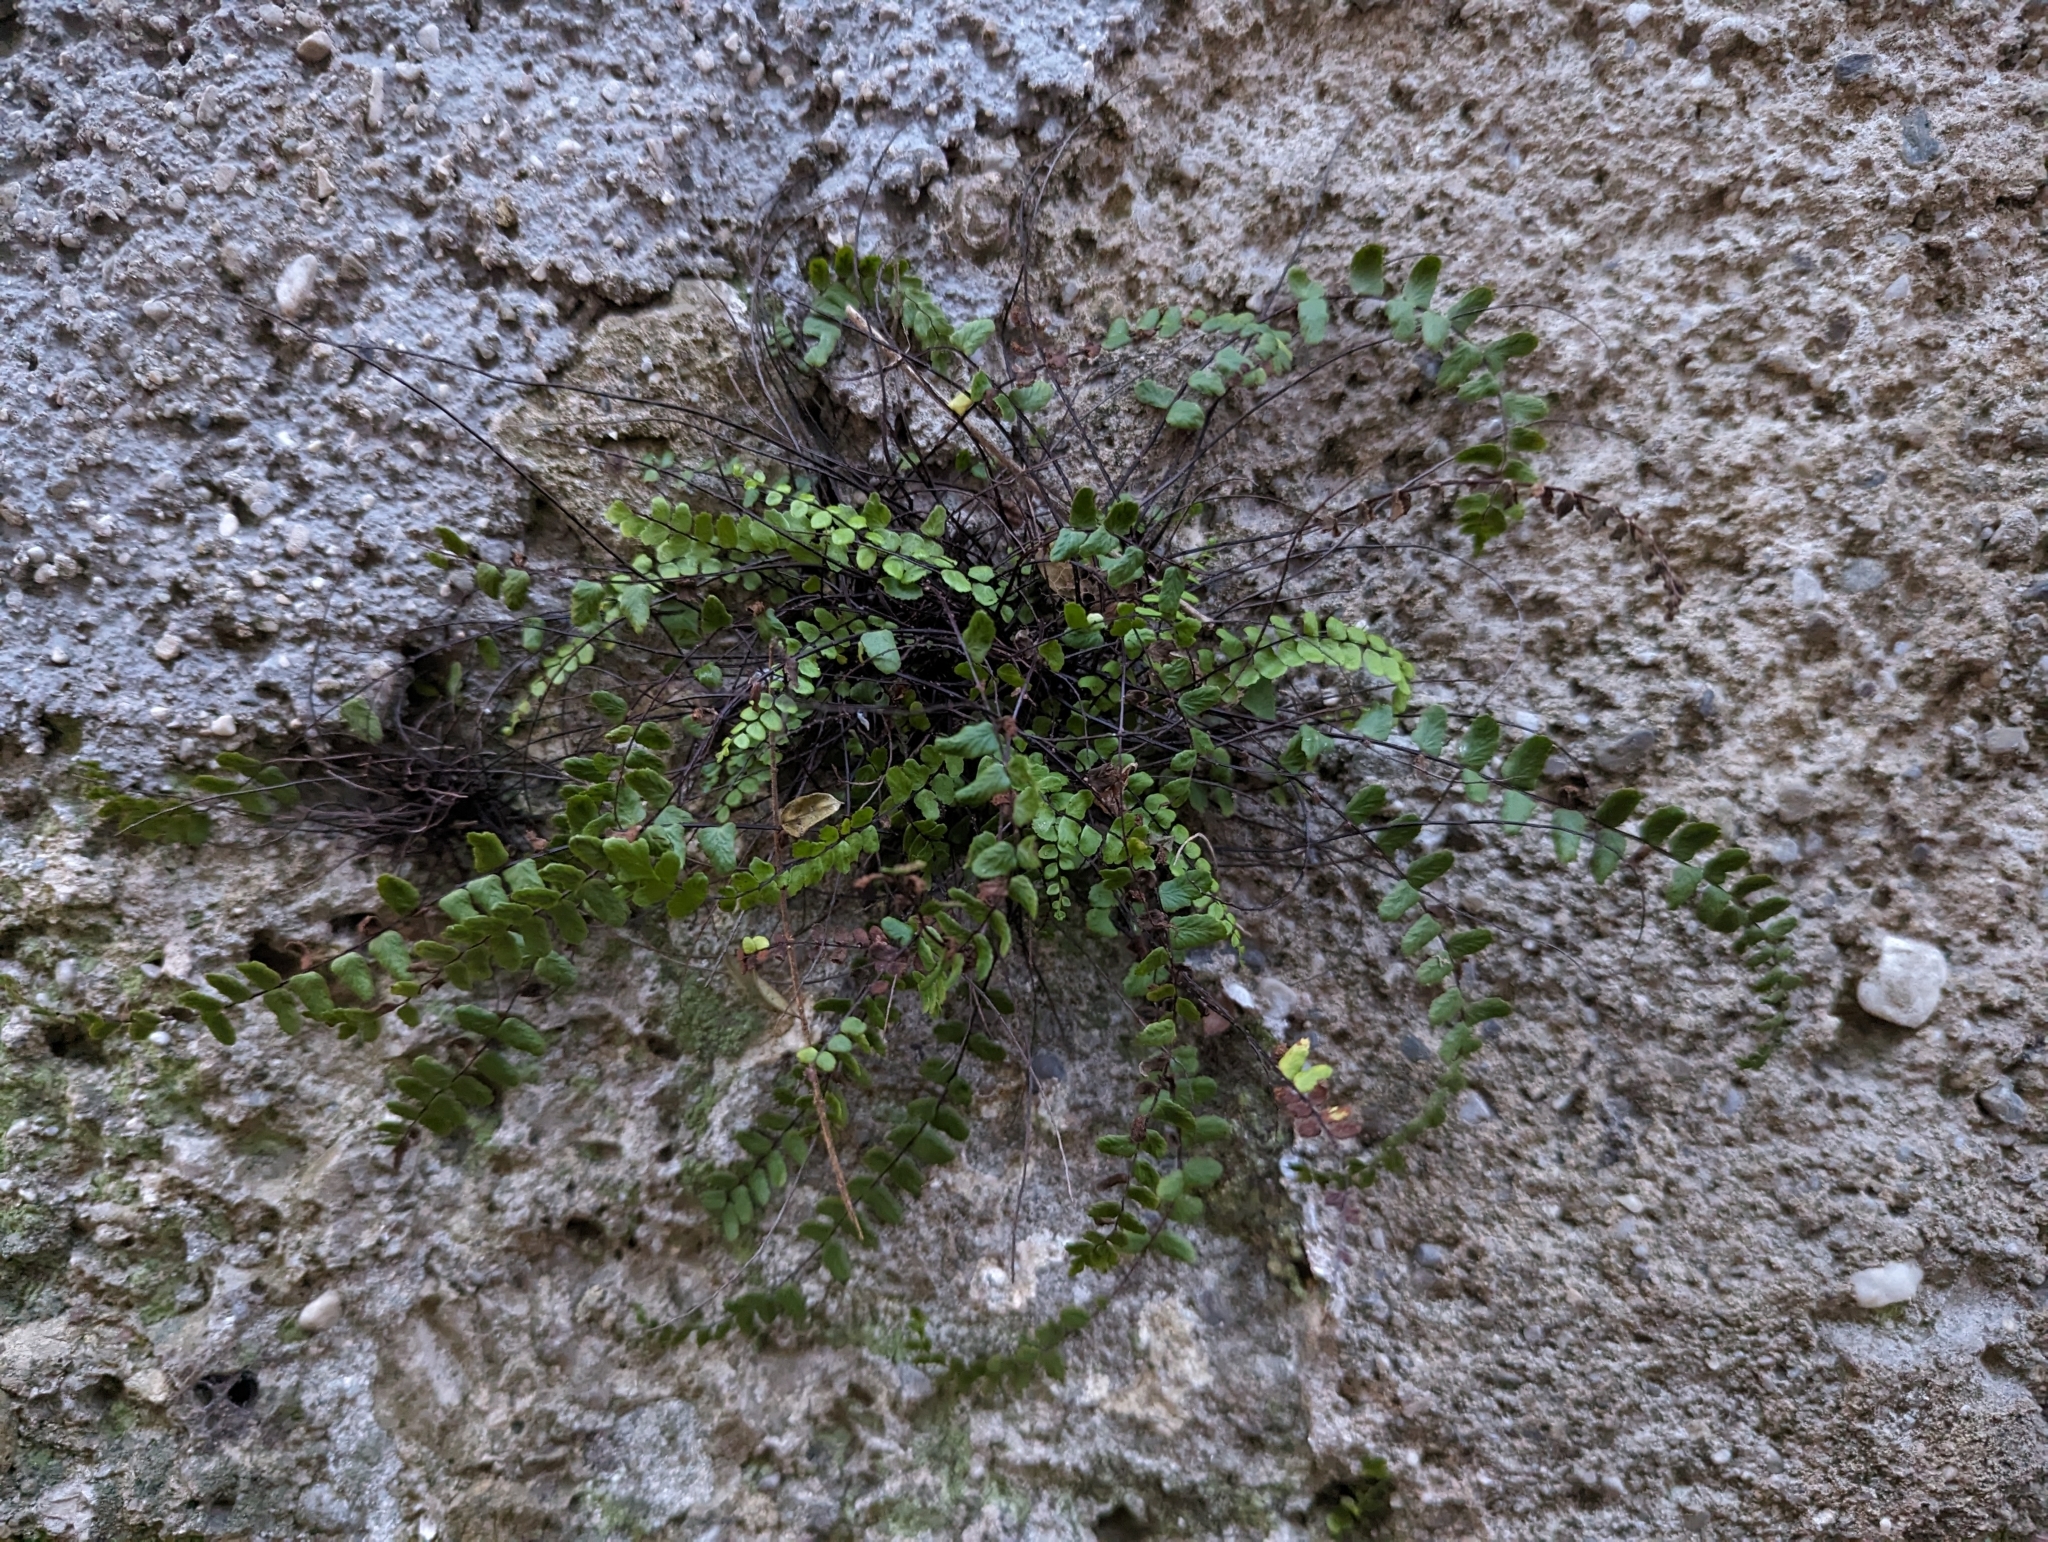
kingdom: Plantae
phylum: Tracheophyta
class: Polypodiopsida
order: Polypodiales
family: Aspleniaceae
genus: Asplenium
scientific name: Asplenium trichomanes
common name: Maidenhair spleenwort
